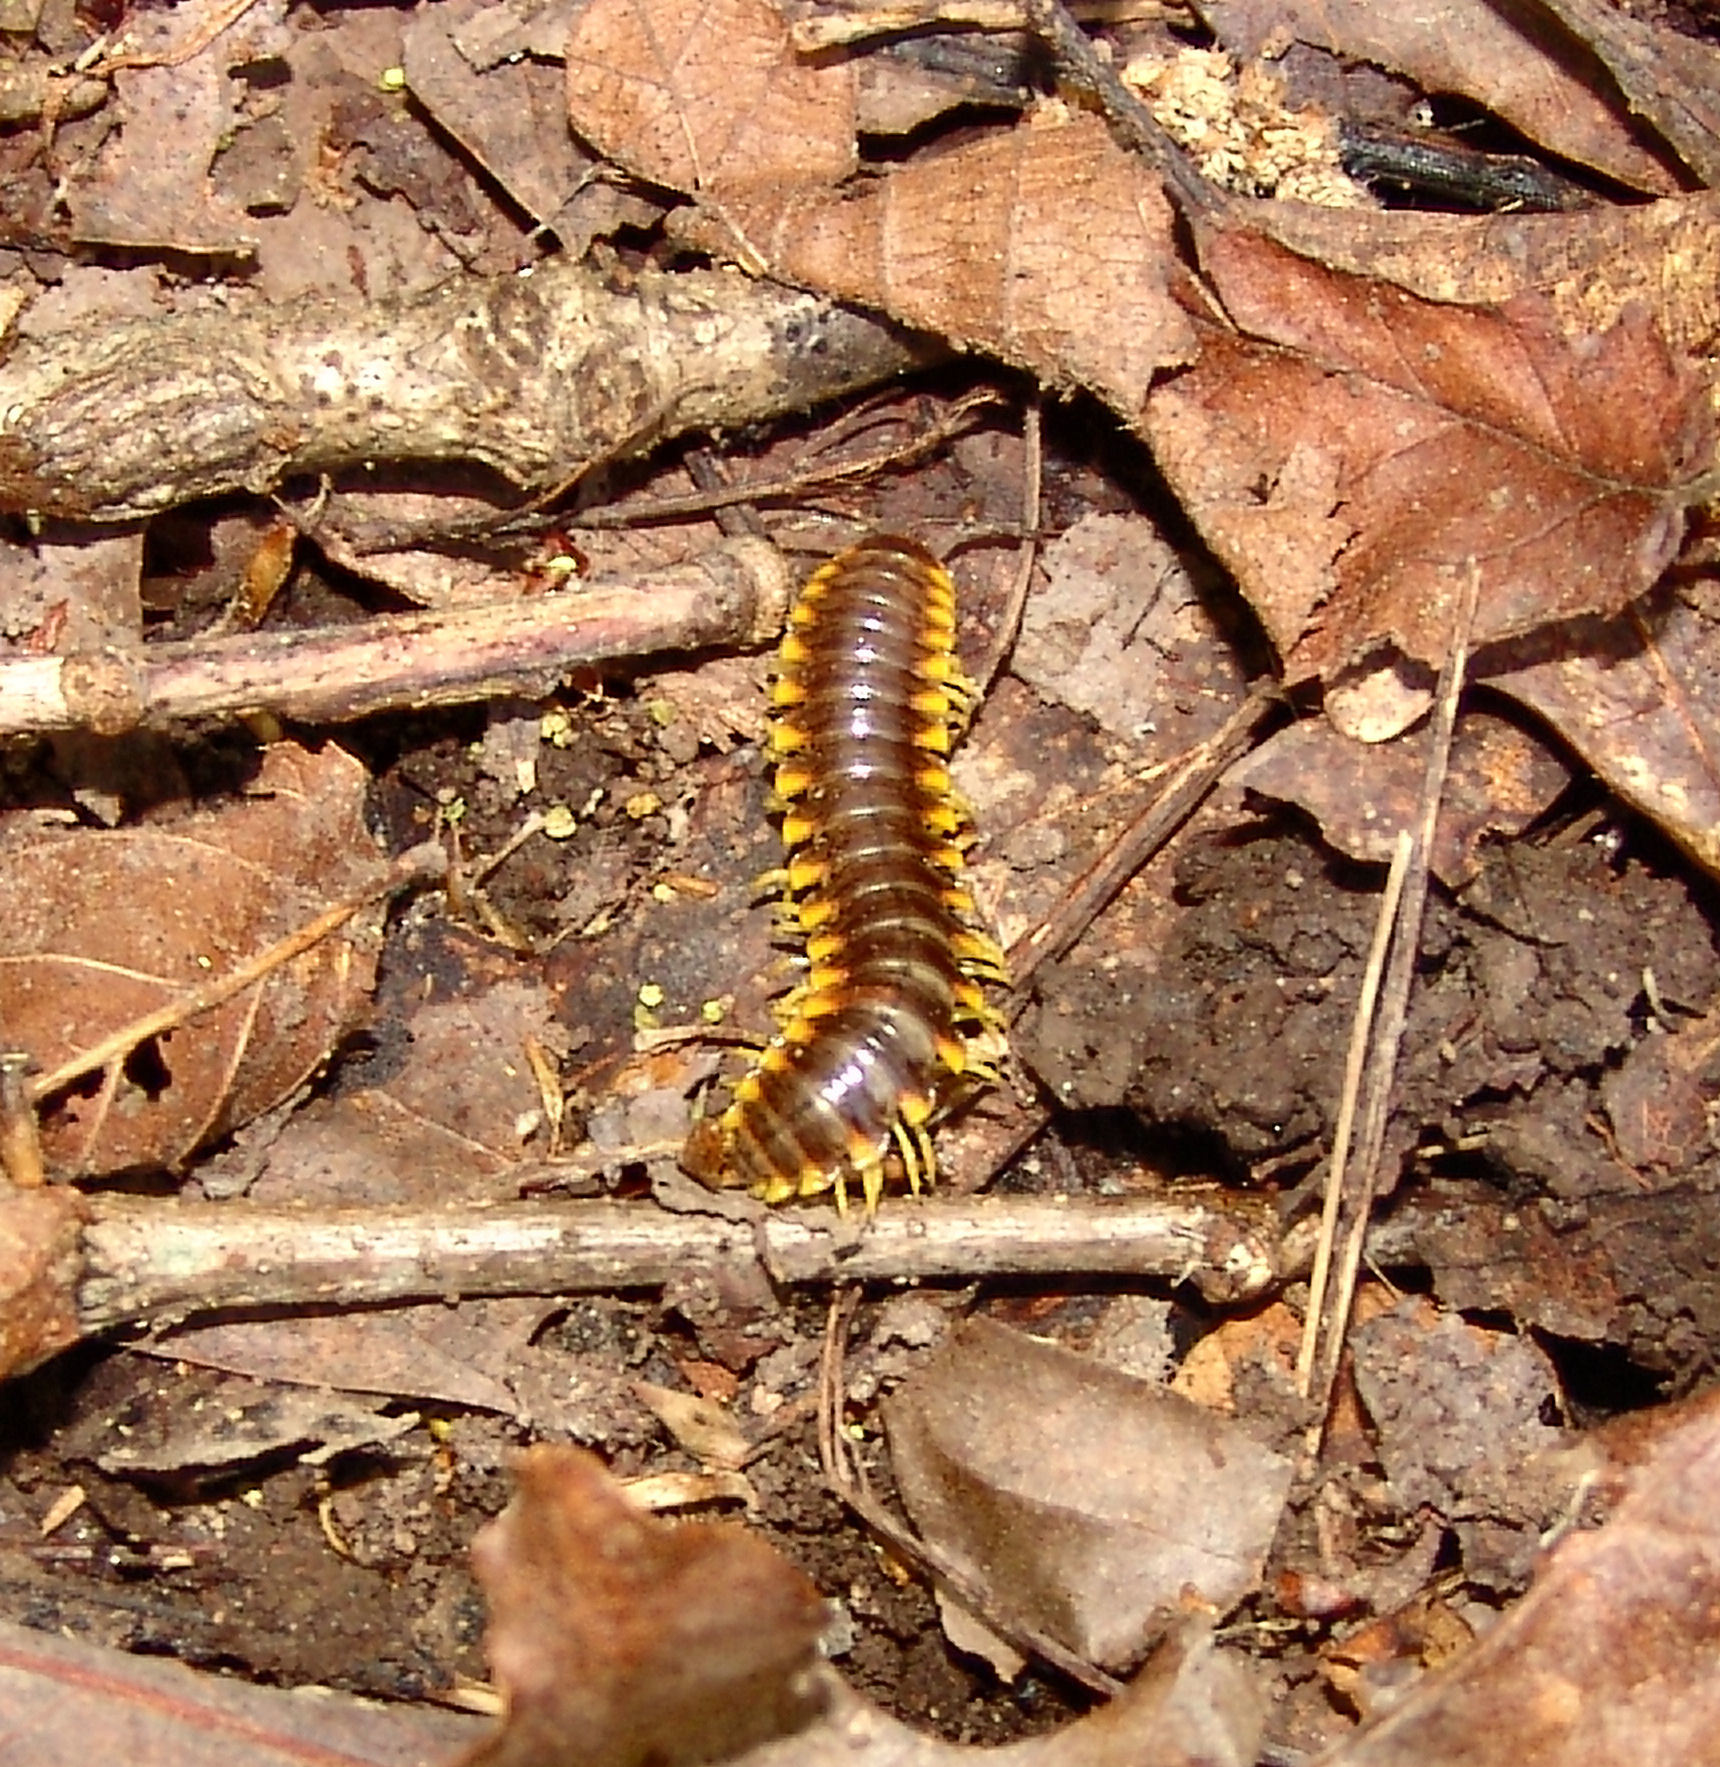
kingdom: Animalia
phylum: Arthropoda
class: Diplopoda
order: Polydesmida
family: Xystodesmidae
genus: Apheloria
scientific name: Apheloria virginiensis
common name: Black-and-gold flat millipede
